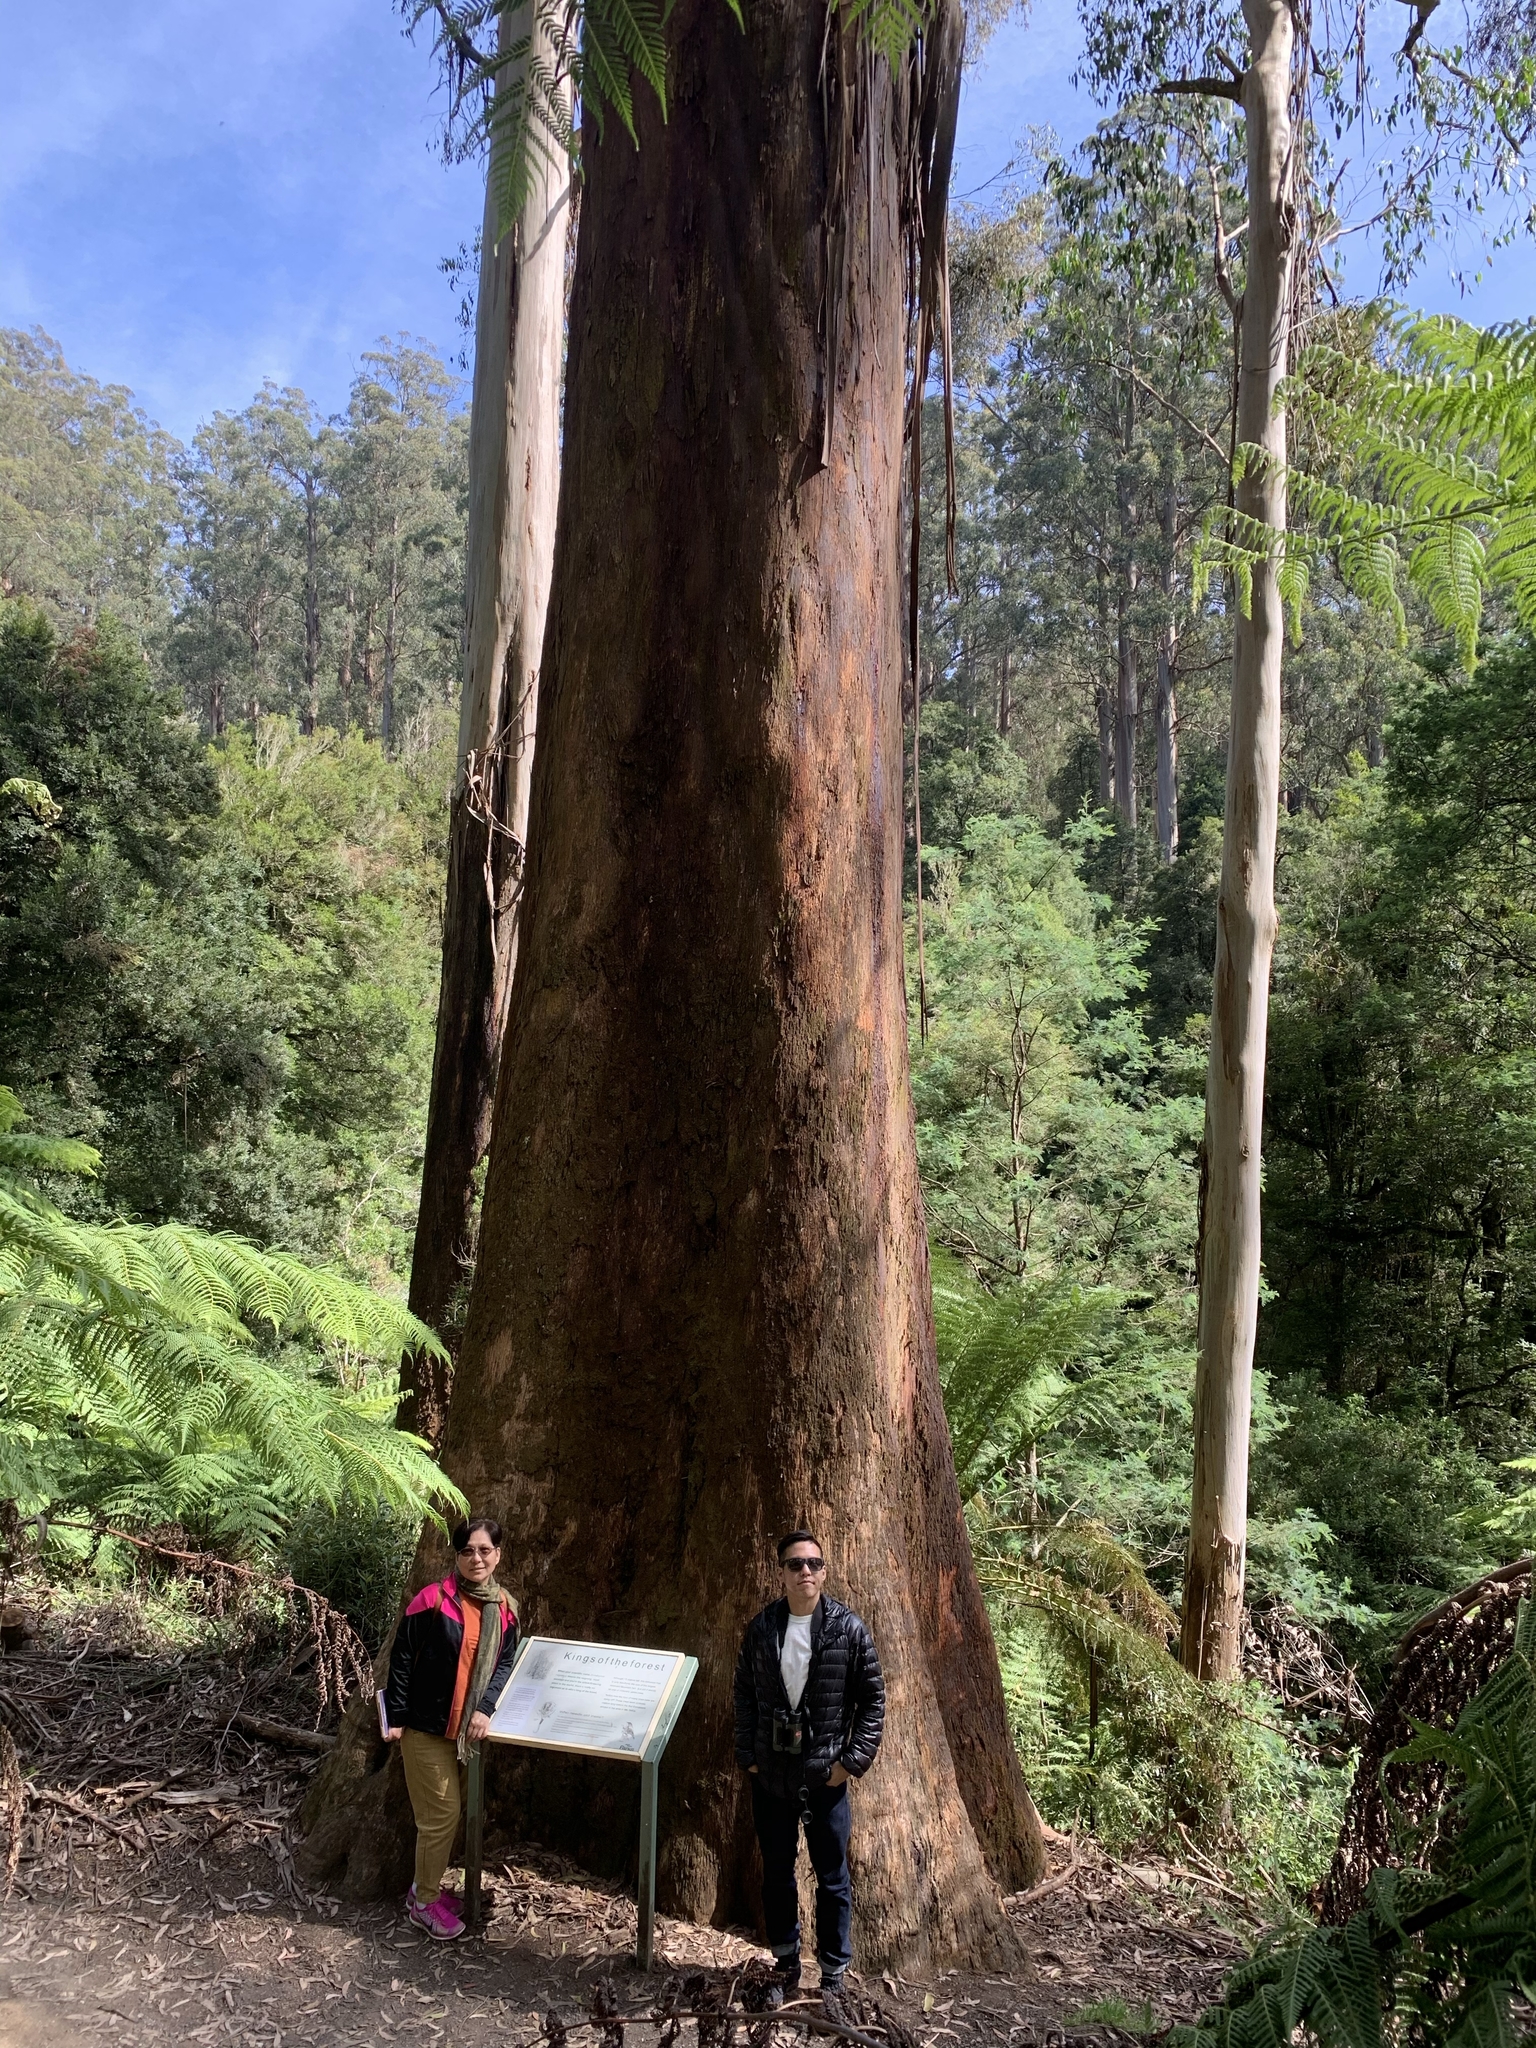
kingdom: Plantae
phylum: Tracheophyta
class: Magnoliopsida
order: Myrtales
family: Myrtaceae
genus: Eucalyptus
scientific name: Eucalyptus regnans
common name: Stringy gum
